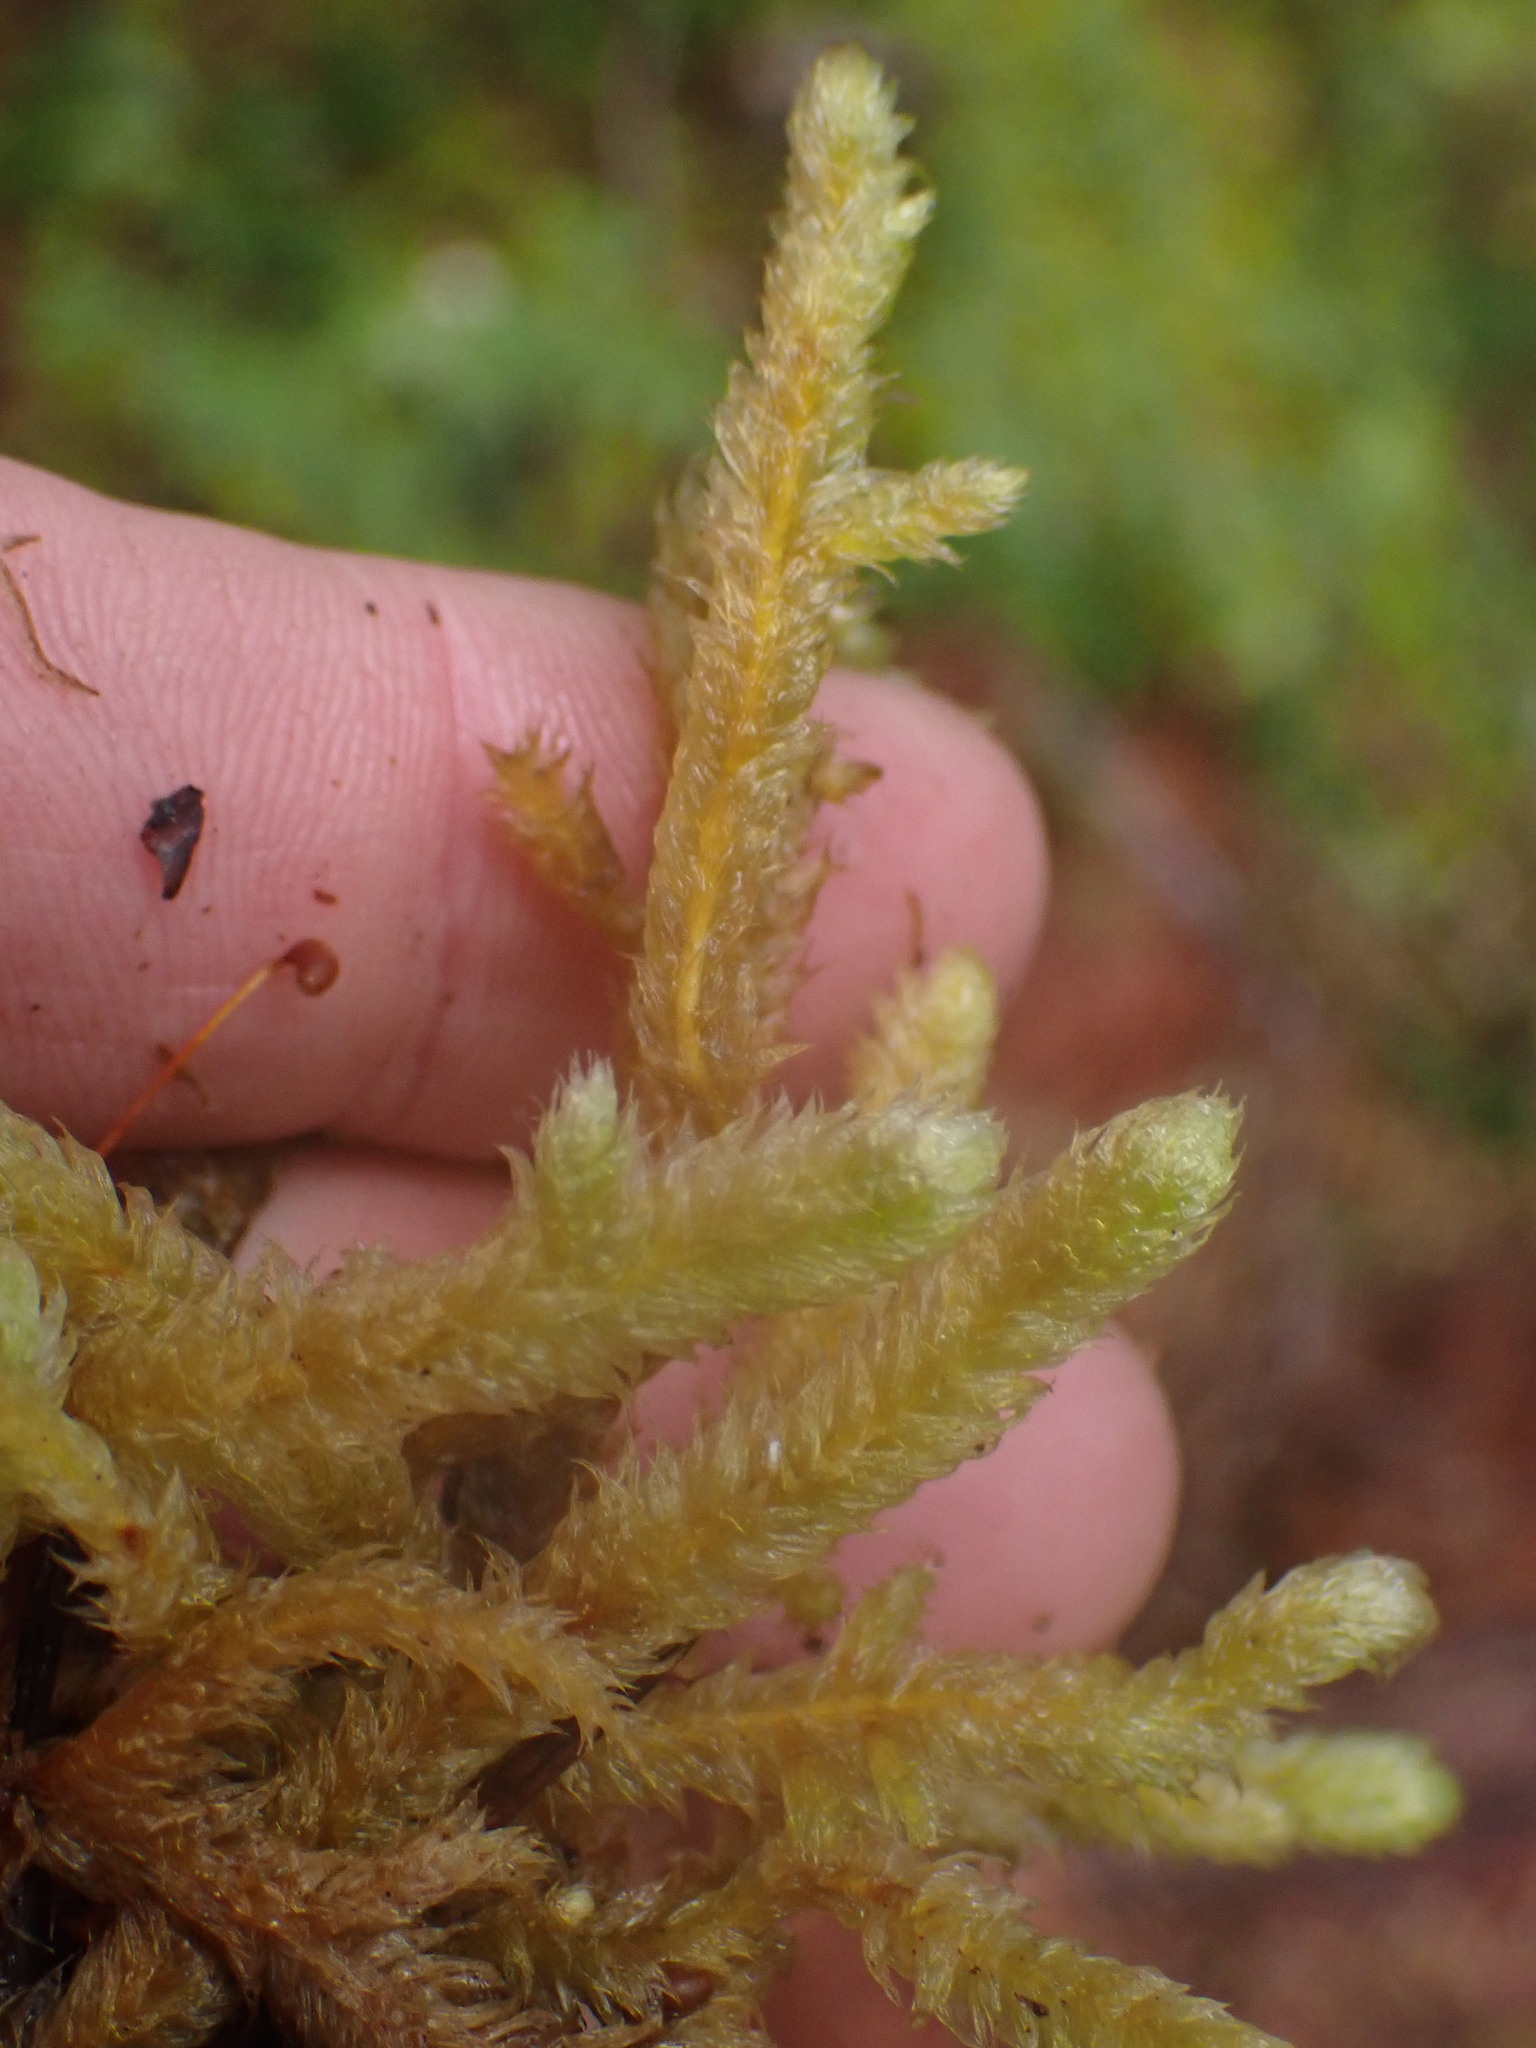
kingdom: Plantae
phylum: Bryophyta
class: Bryopsida
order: Hypnales
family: Hylocomiaceae
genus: Rhytidiopsis
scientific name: Rhytidiopsis robusta
